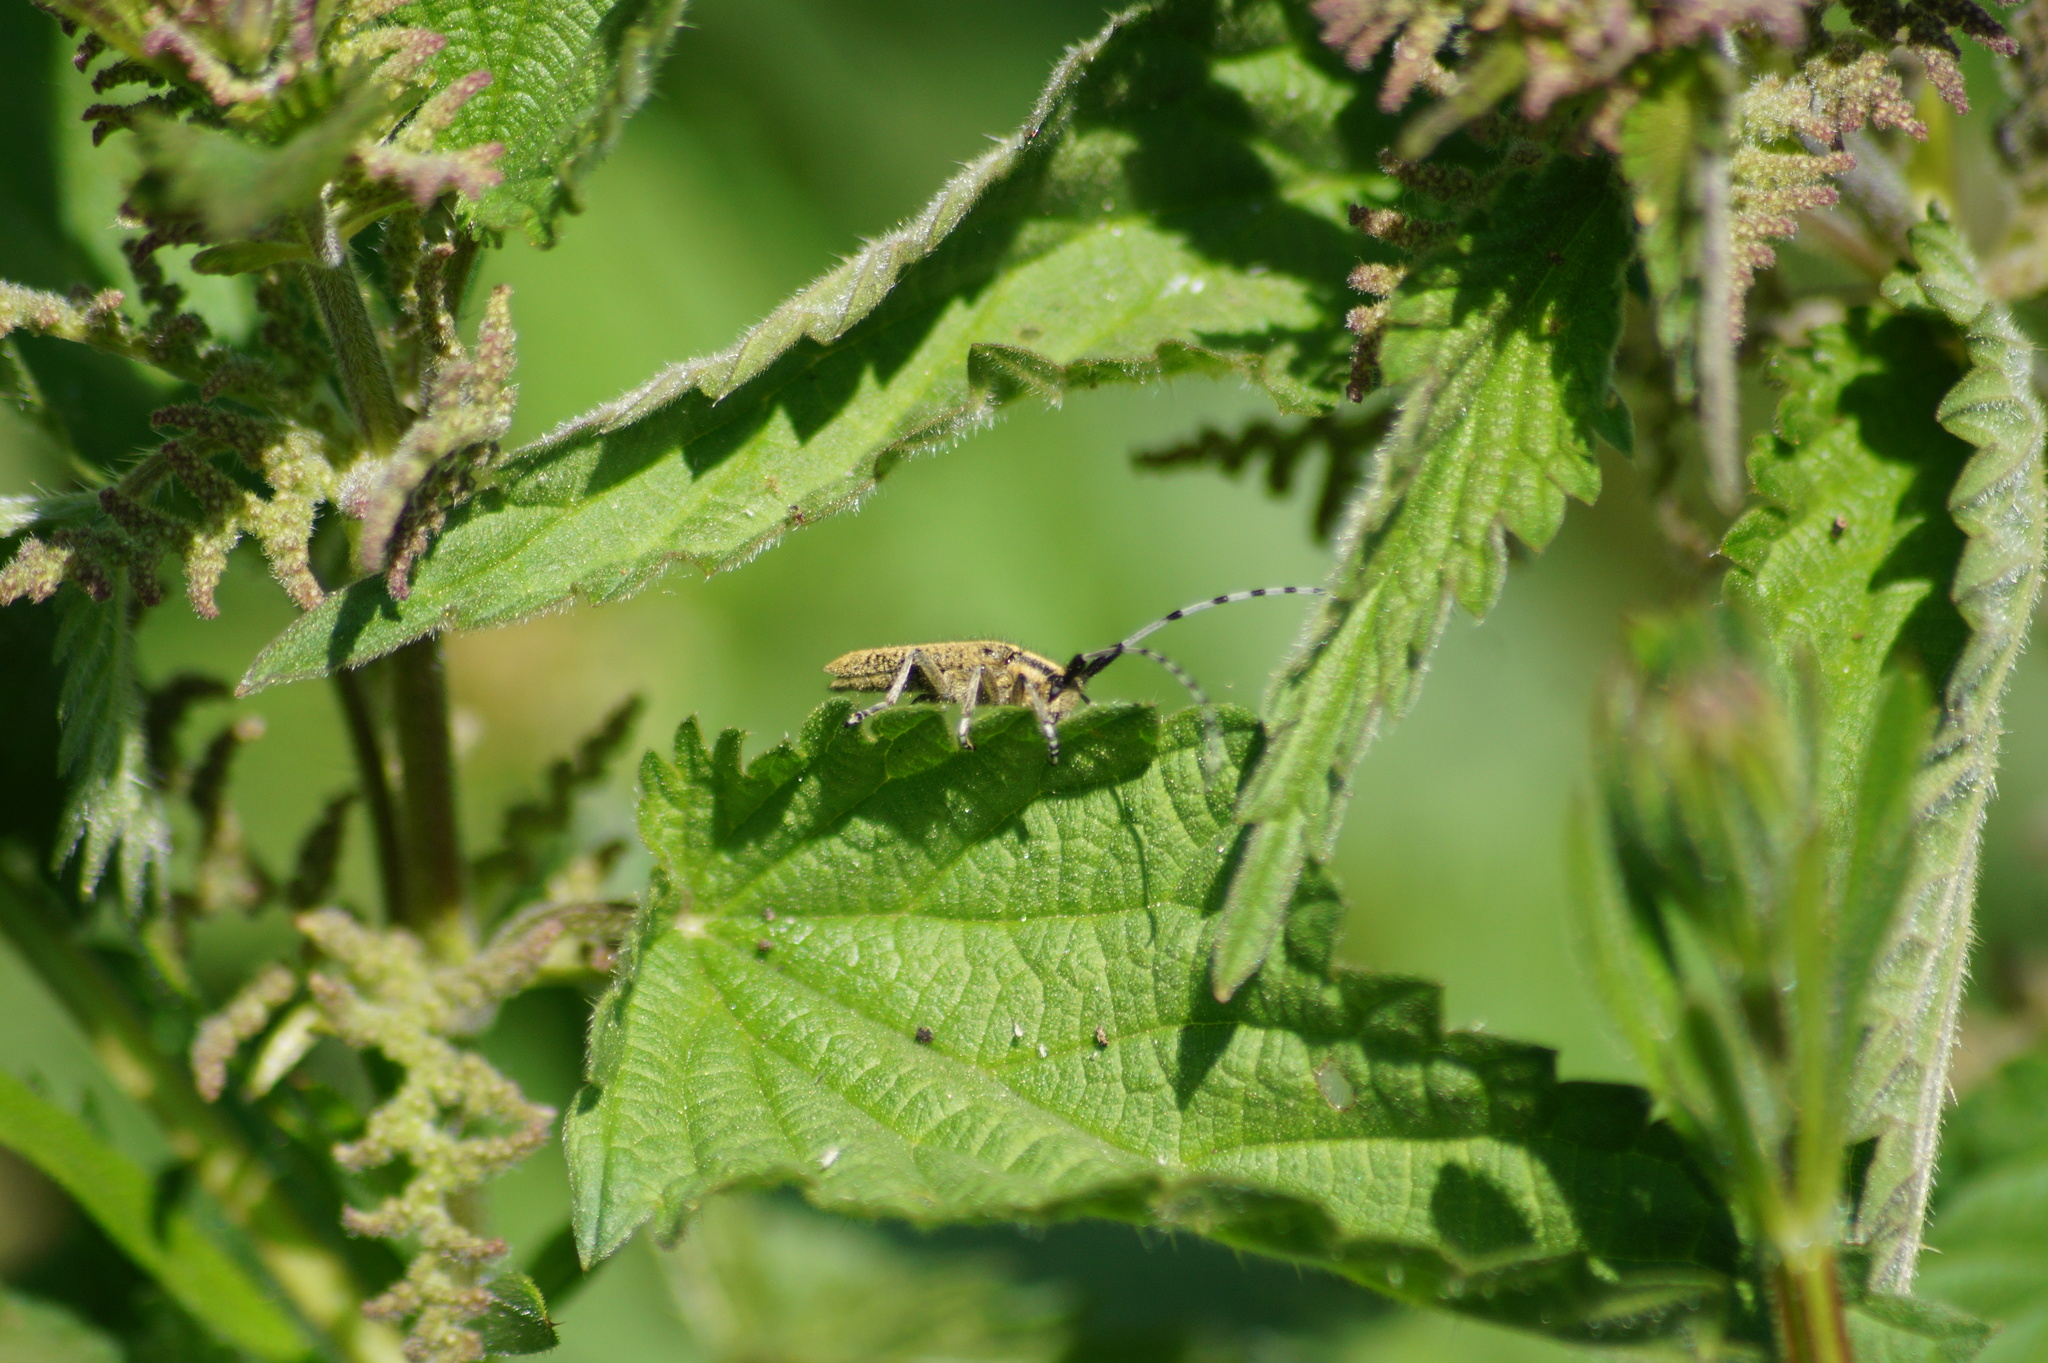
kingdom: Animalia
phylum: Arthropoda
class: Insecta
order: Coleoptera
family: Cerambycidae
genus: Agapanthia
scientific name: Agapanthia villosoviridescens
